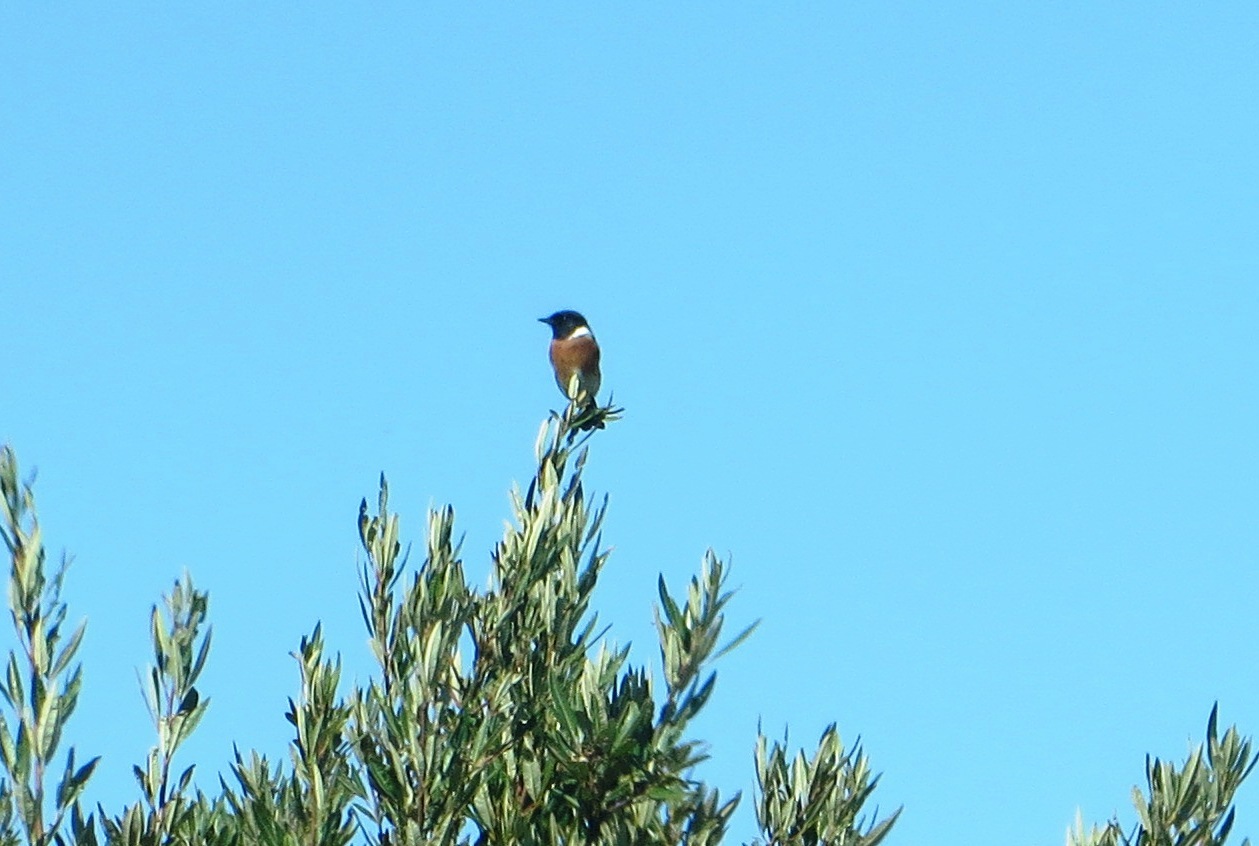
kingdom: Animalia
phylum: Chordata
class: Aves
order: Passeriformes
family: Muscicapidae
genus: Saxicola
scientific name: Saxicola torquatus
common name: African stonechat
